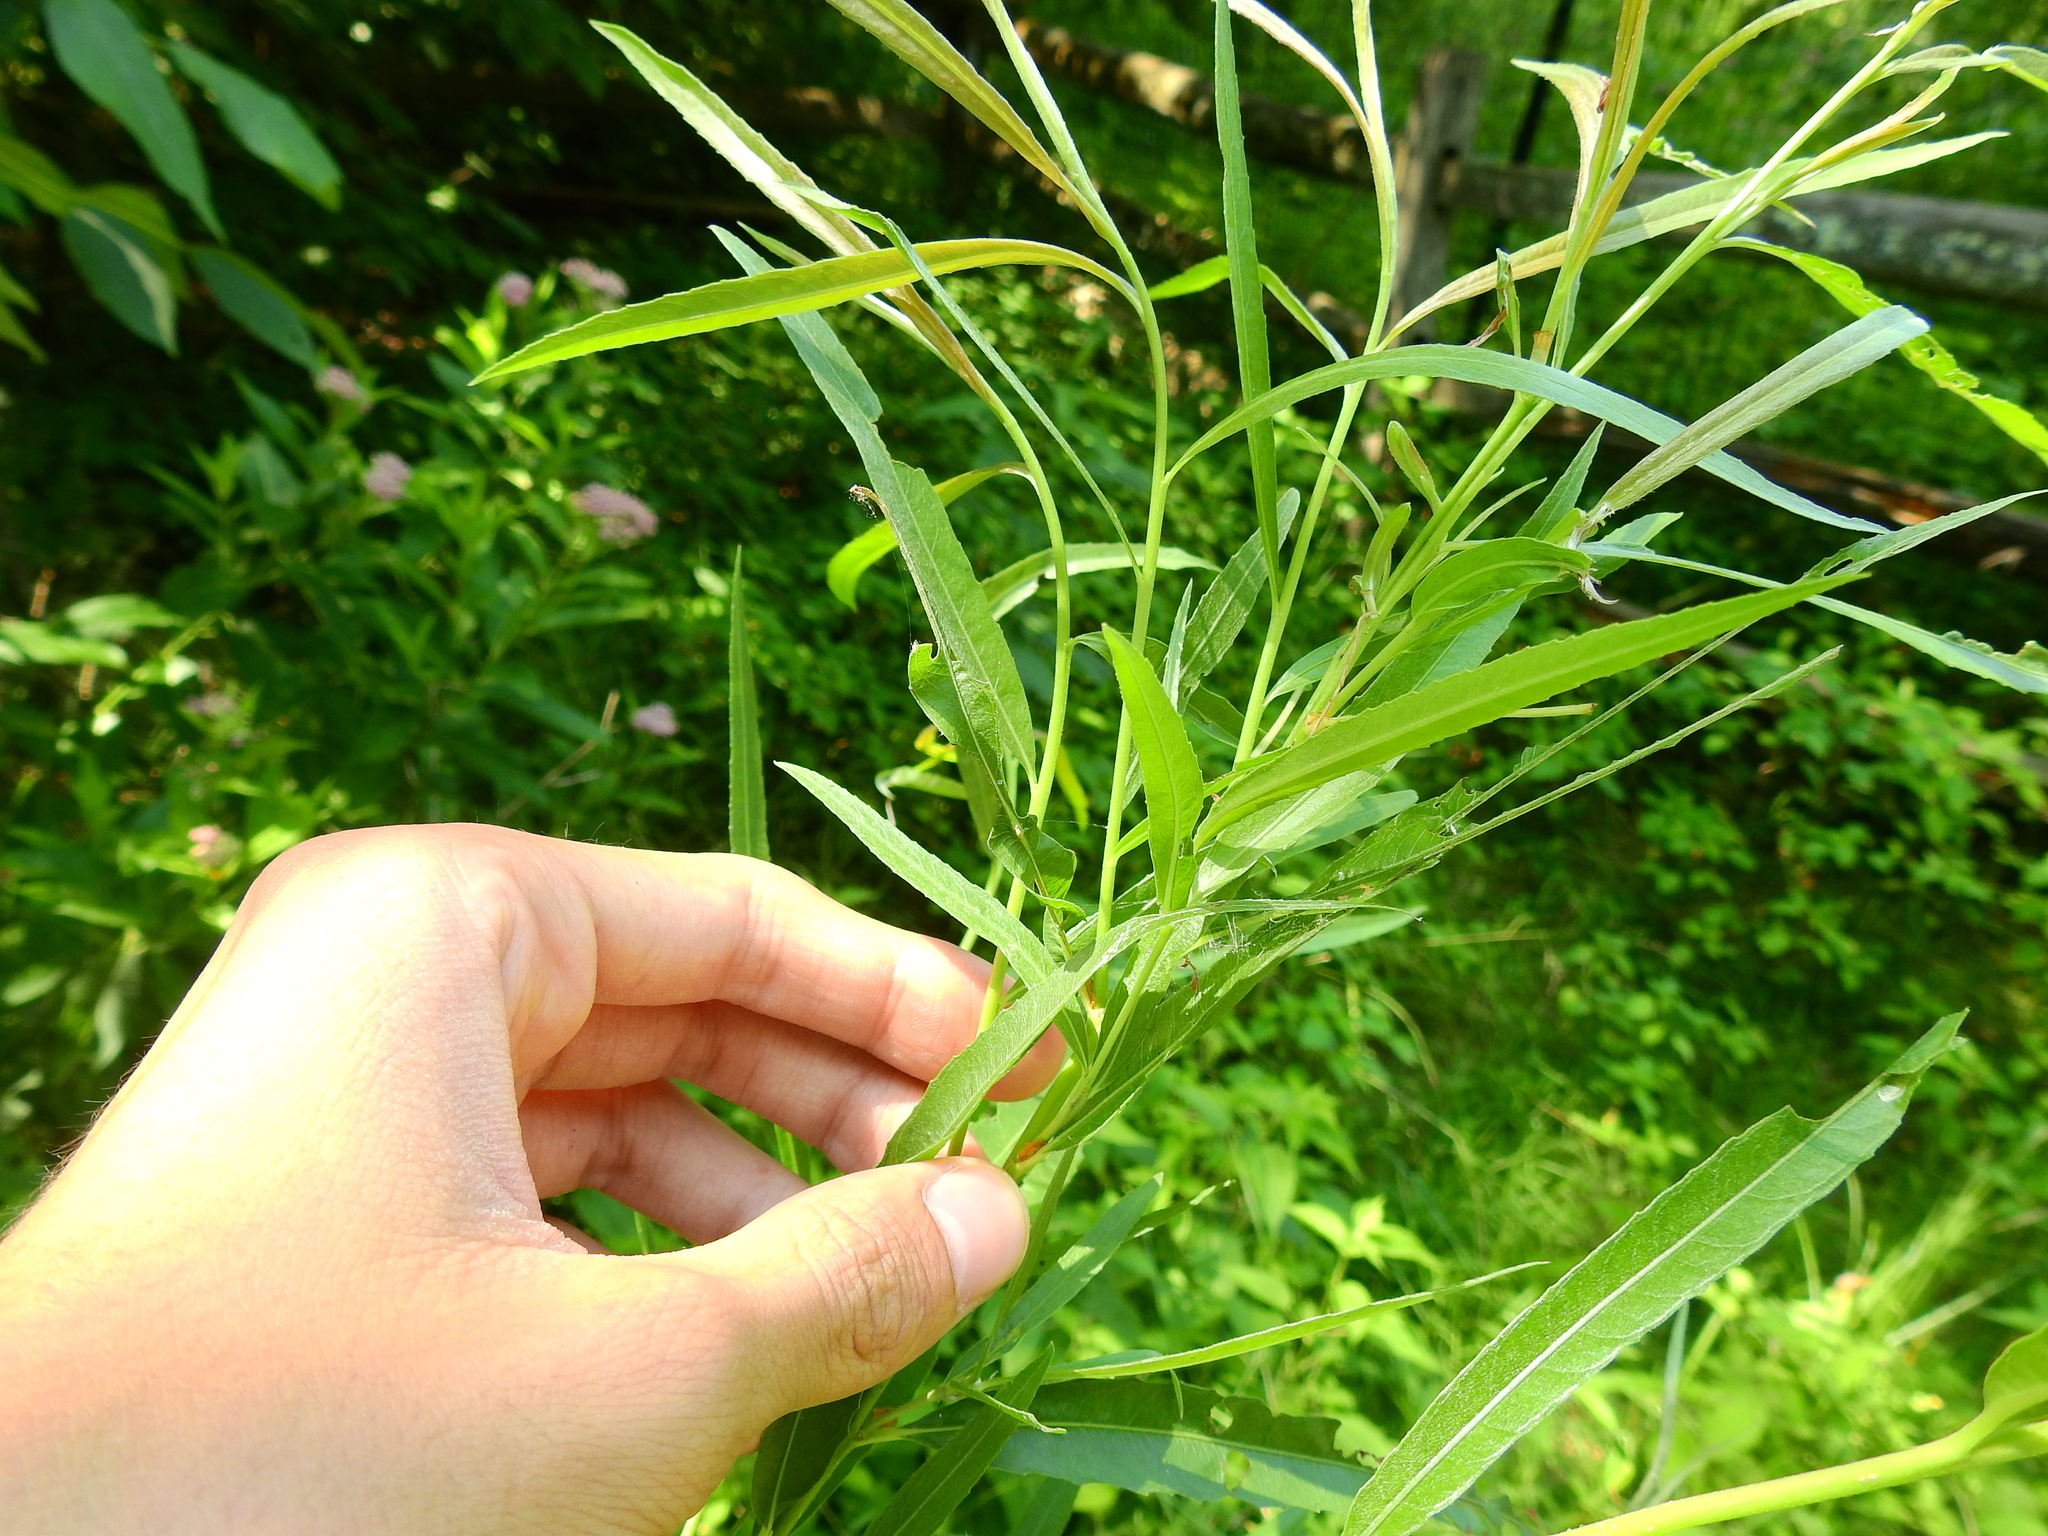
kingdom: Plantae
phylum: Tracheophyta
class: Magnoliopsida
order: Malpighiales
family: Salicaceae
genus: Salix
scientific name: Salix interior
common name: Sandbar willow
